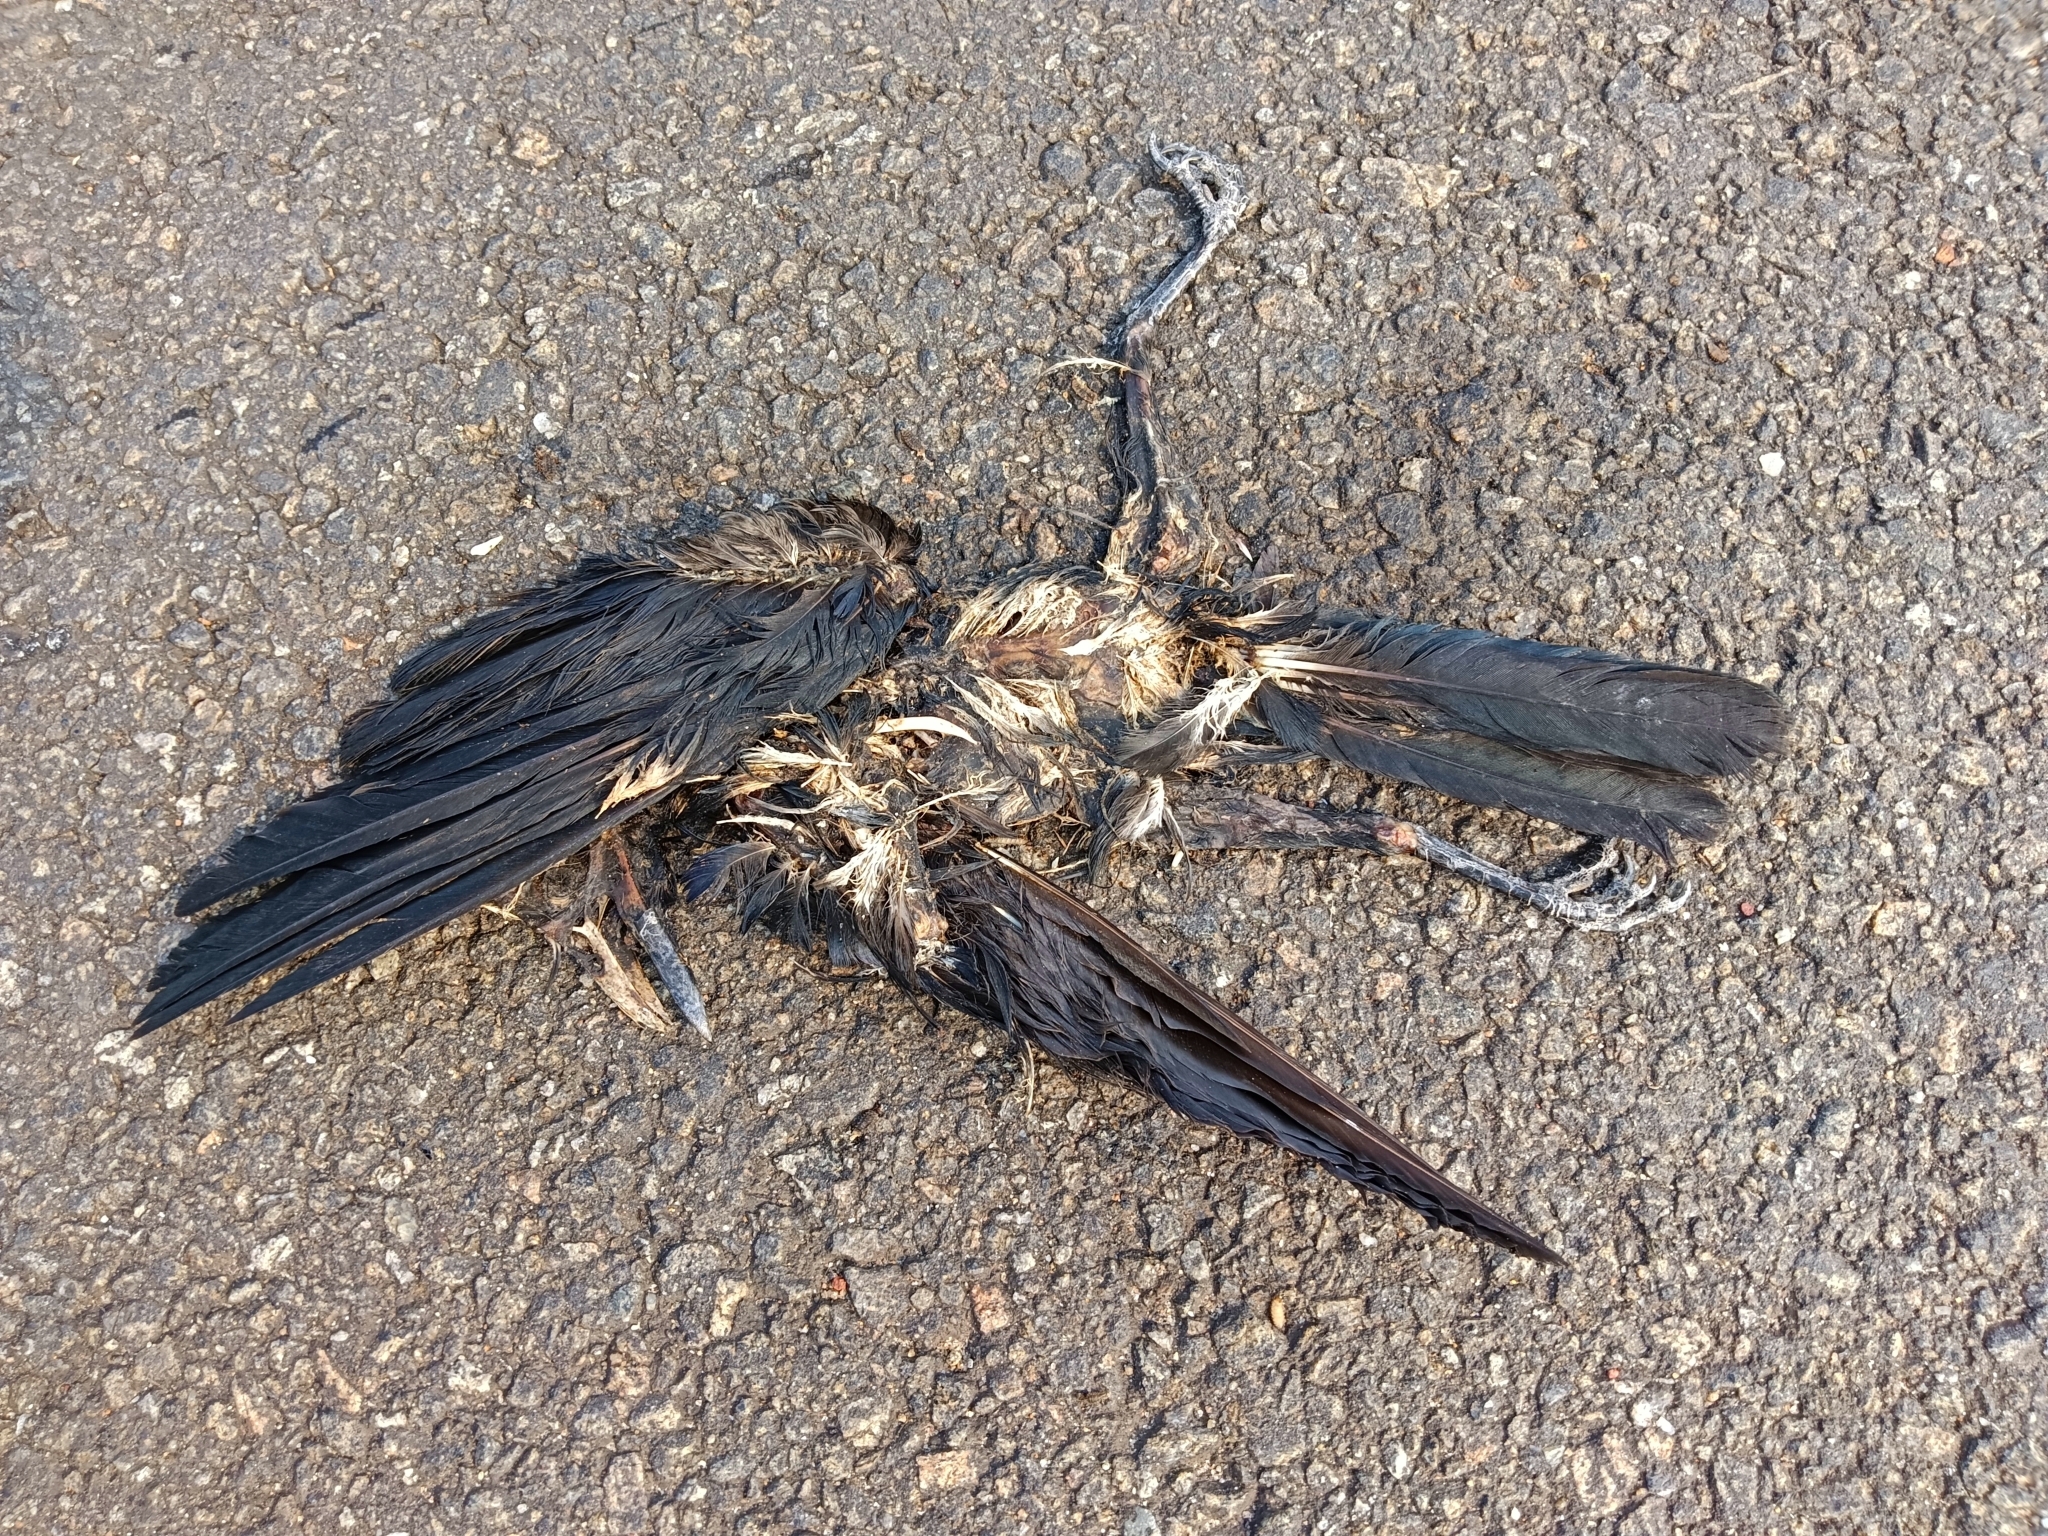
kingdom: Animalia
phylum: Chordata
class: Aves
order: Passeriformes
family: Corvidae
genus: Corvus
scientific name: Corvus splendens
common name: House crow
